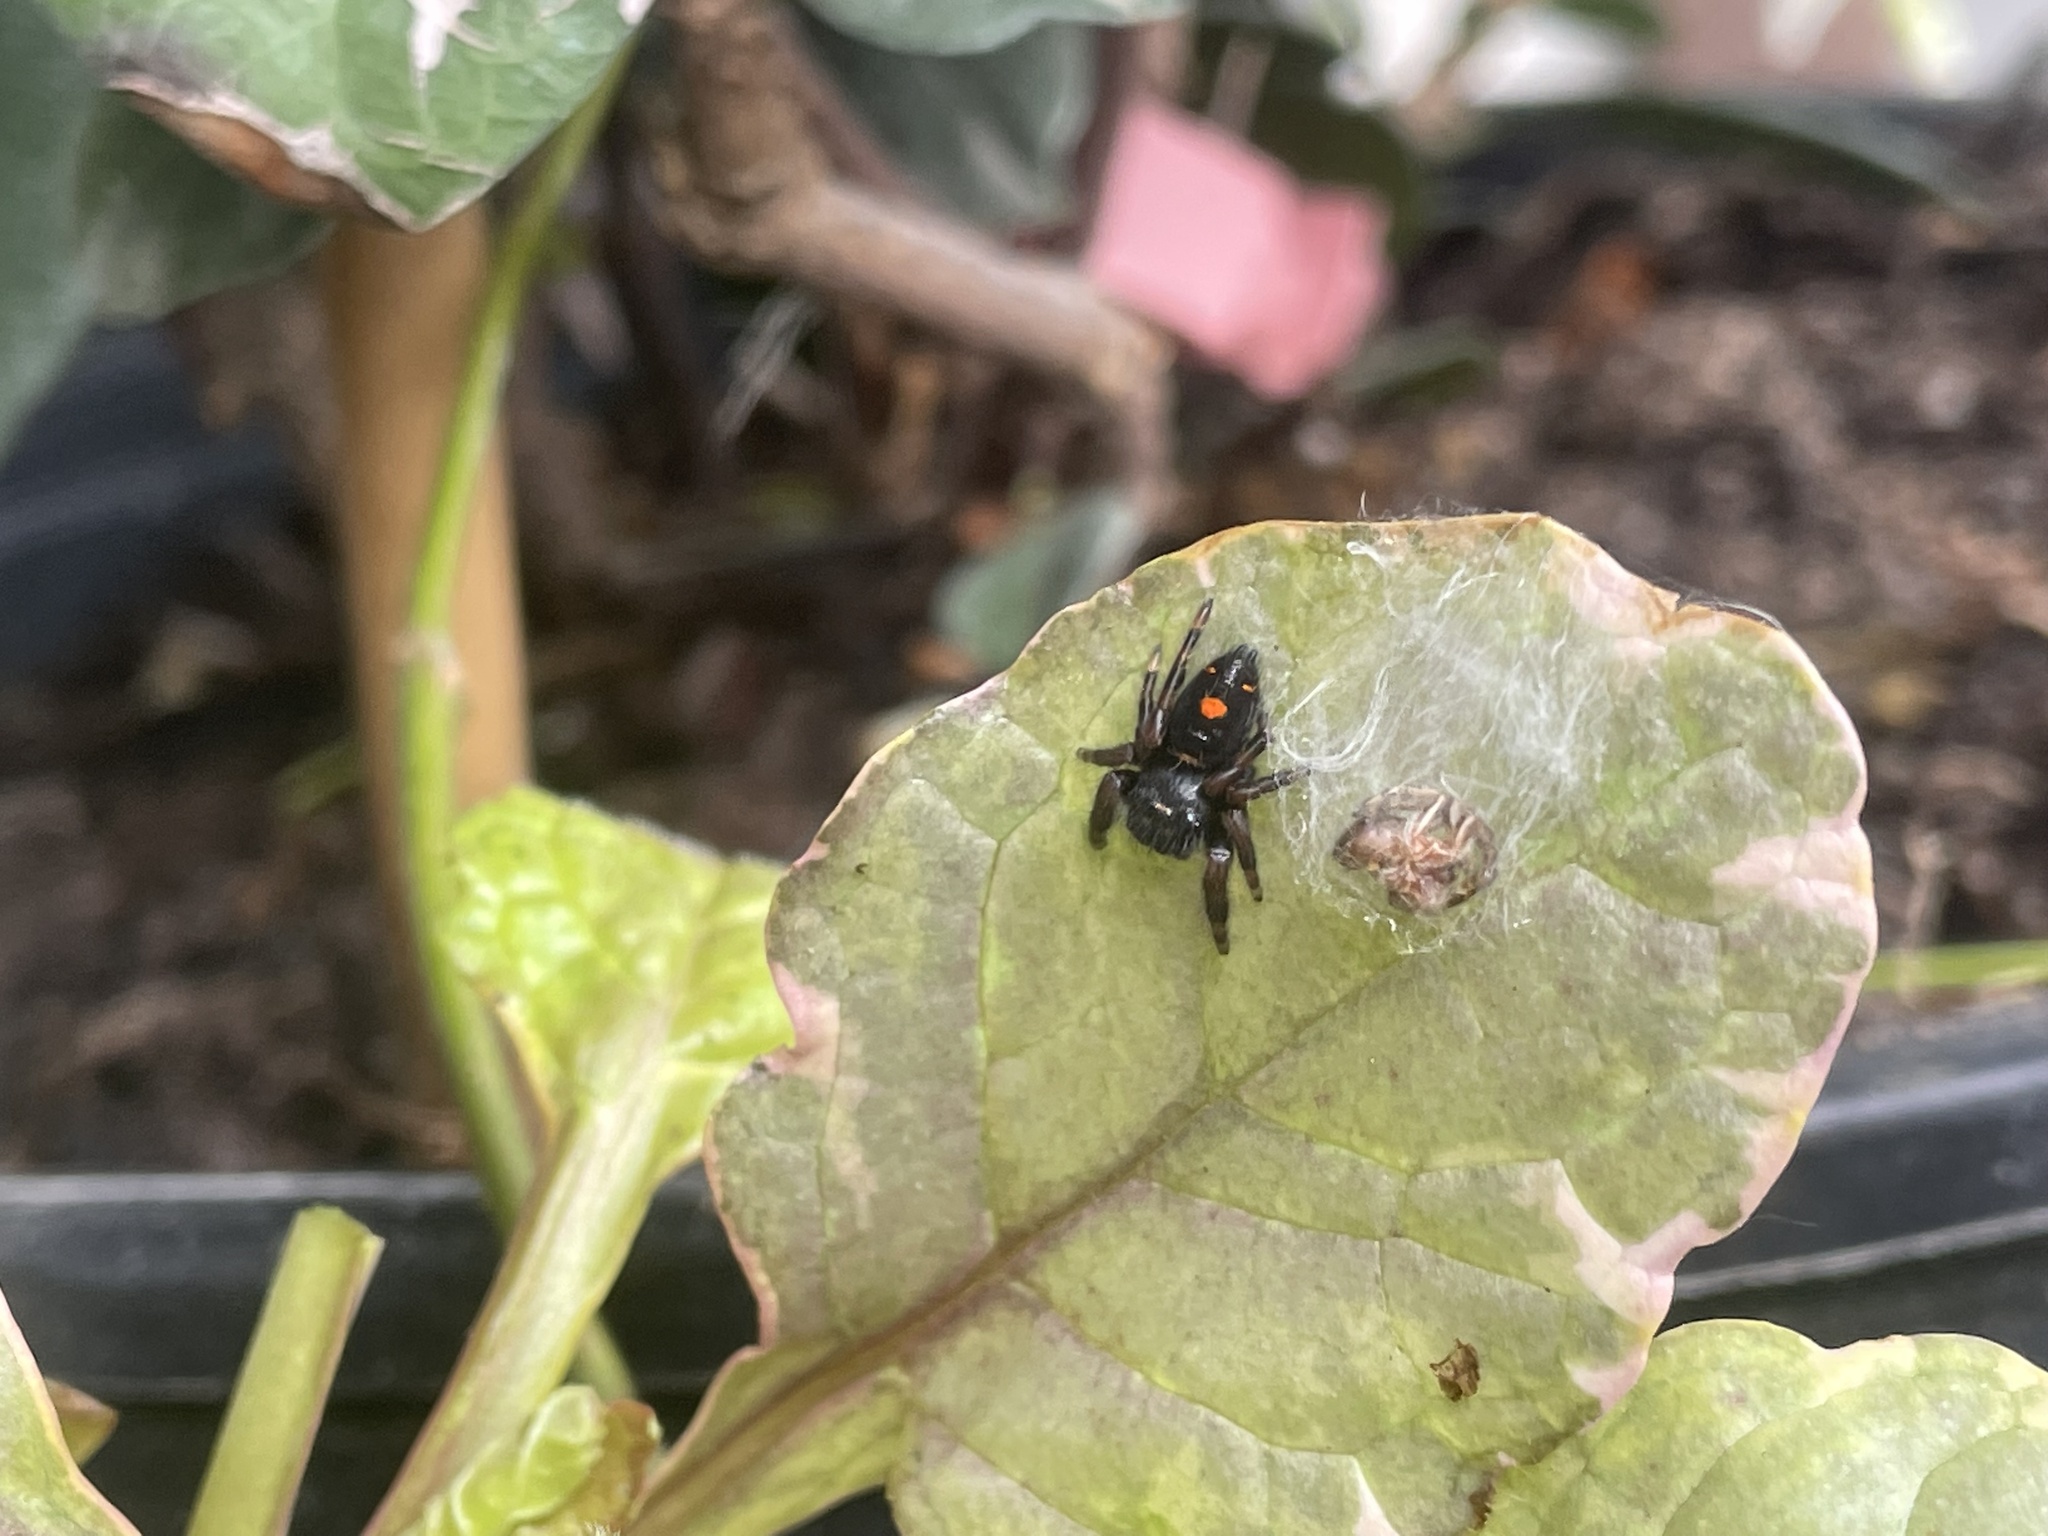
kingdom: Animalia
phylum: Arthropoda
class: Arachnida
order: Araneae
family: Salticidae
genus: Phidippus
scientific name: Phidippus audax
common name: Bold jumper
